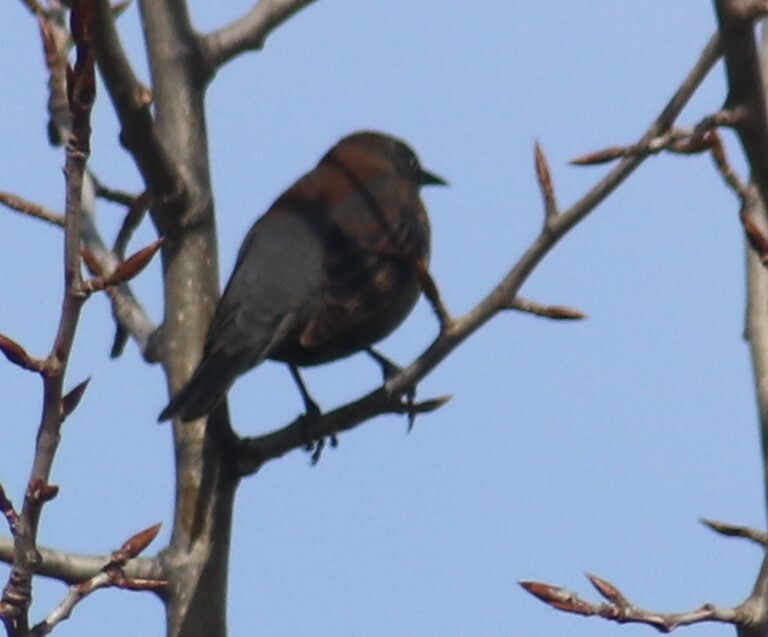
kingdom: Animalia
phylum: Chordata
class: Aves
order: Passeriformes
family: Icteridae
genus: Euphagus
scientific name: Euphagus carolinus
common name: Rusty blackbird
